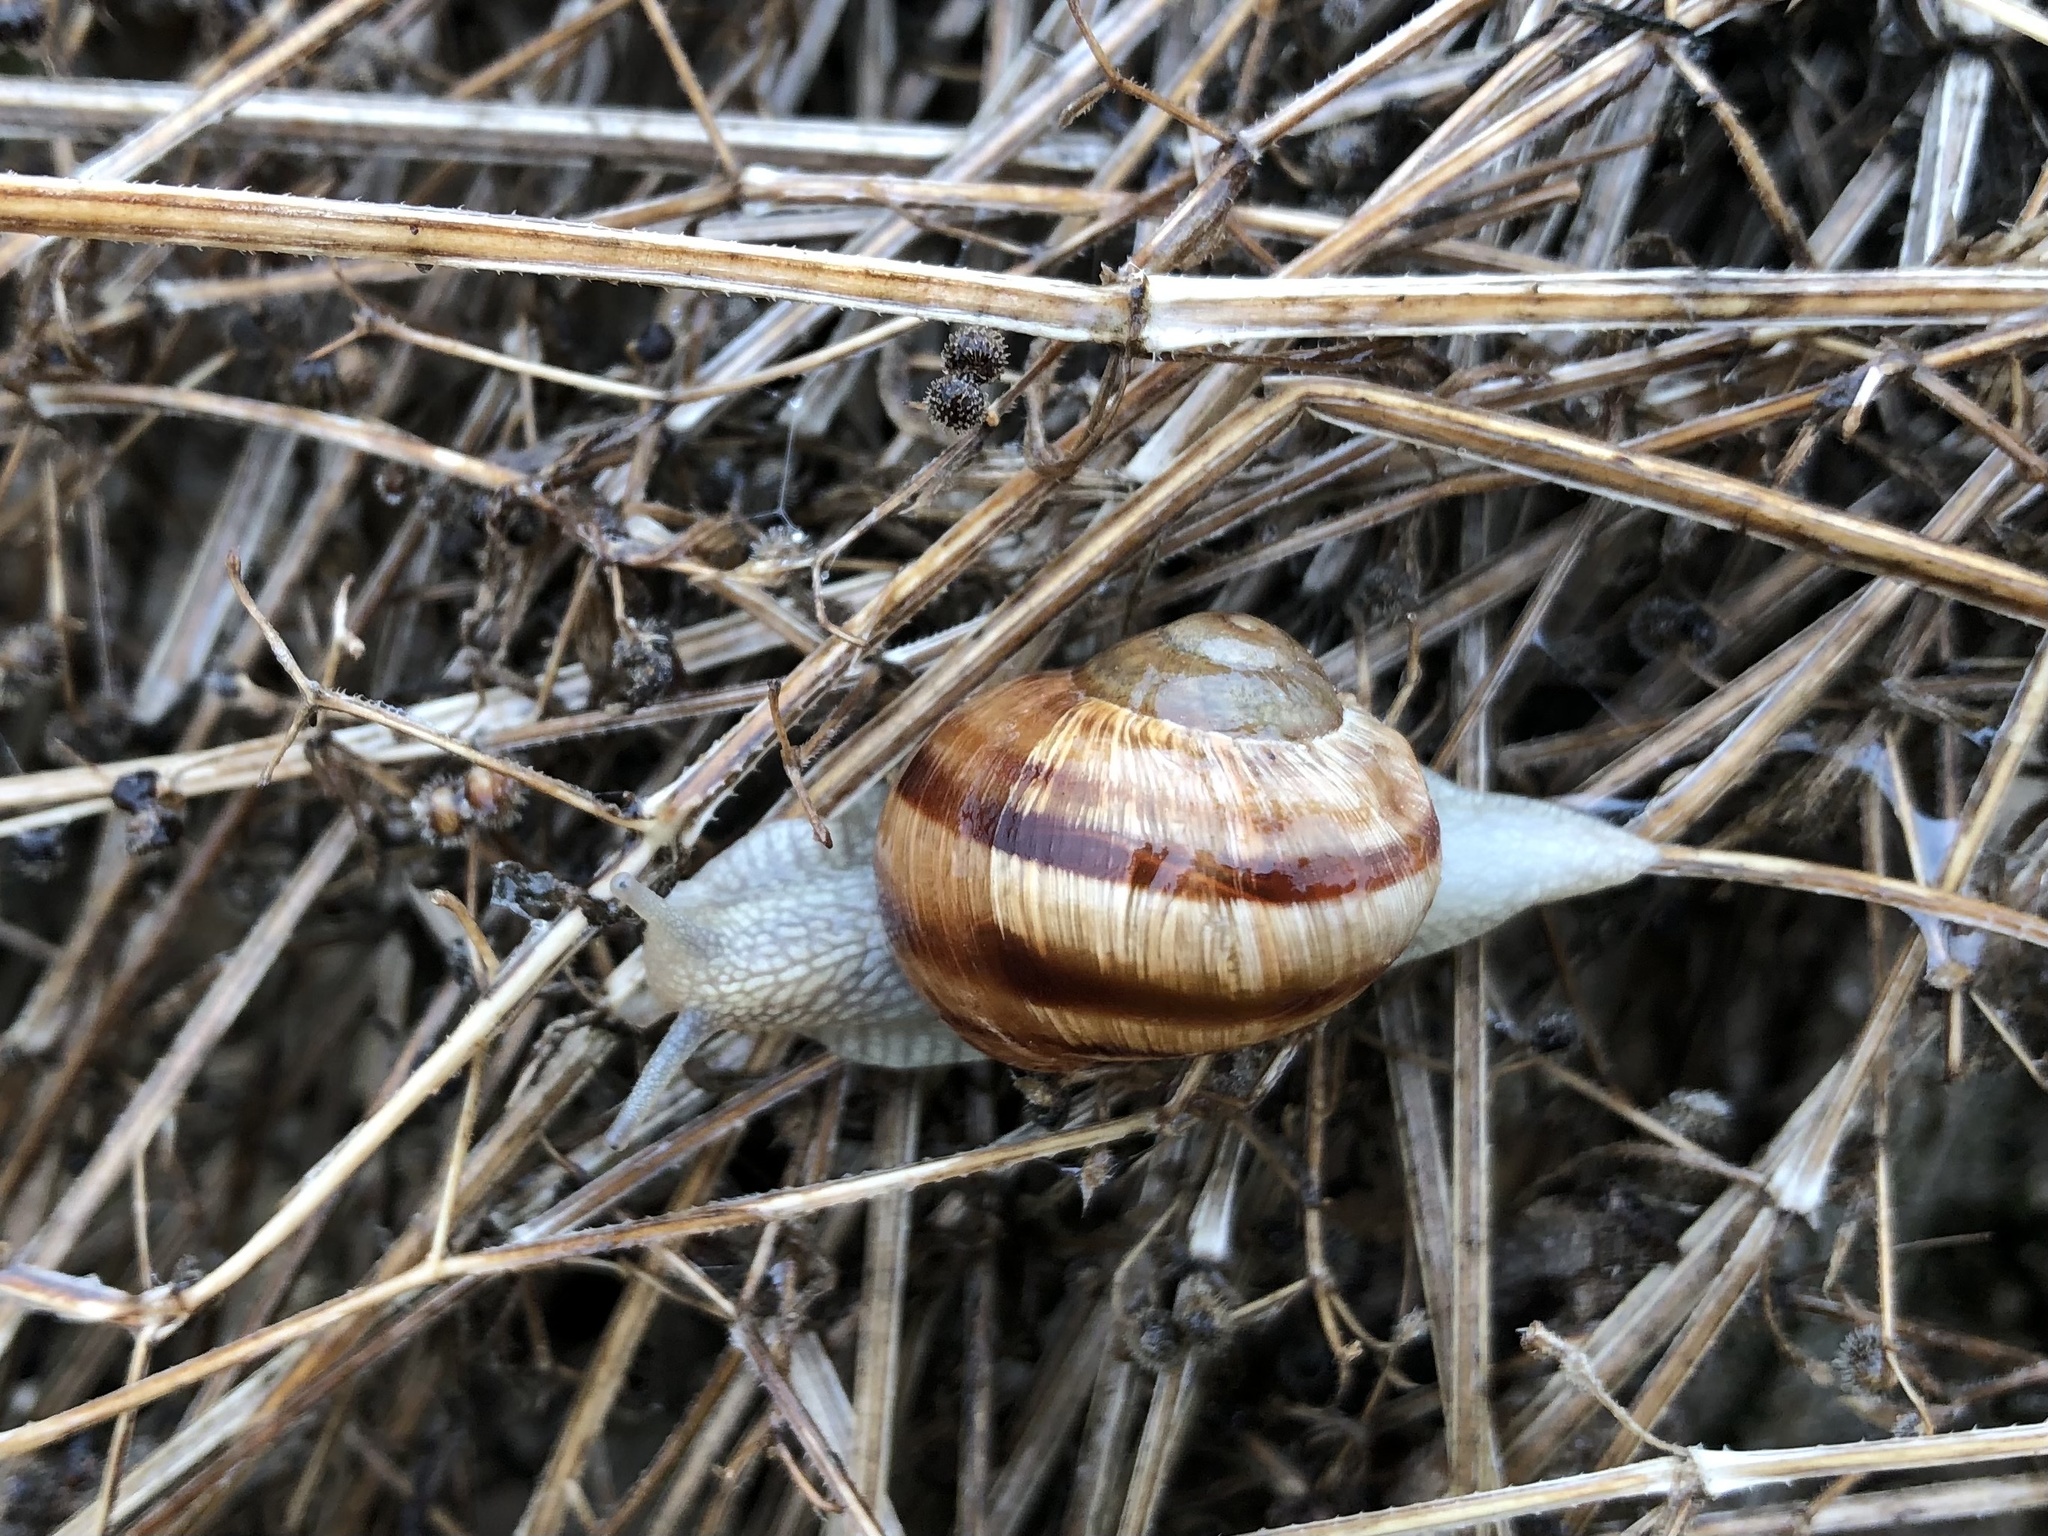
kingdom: Animalia
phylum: Mollusca
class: Gastropoda
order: Stylommatophora
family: Helicidae
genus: Helix
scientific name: Helix pomatia
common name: Roman snail
